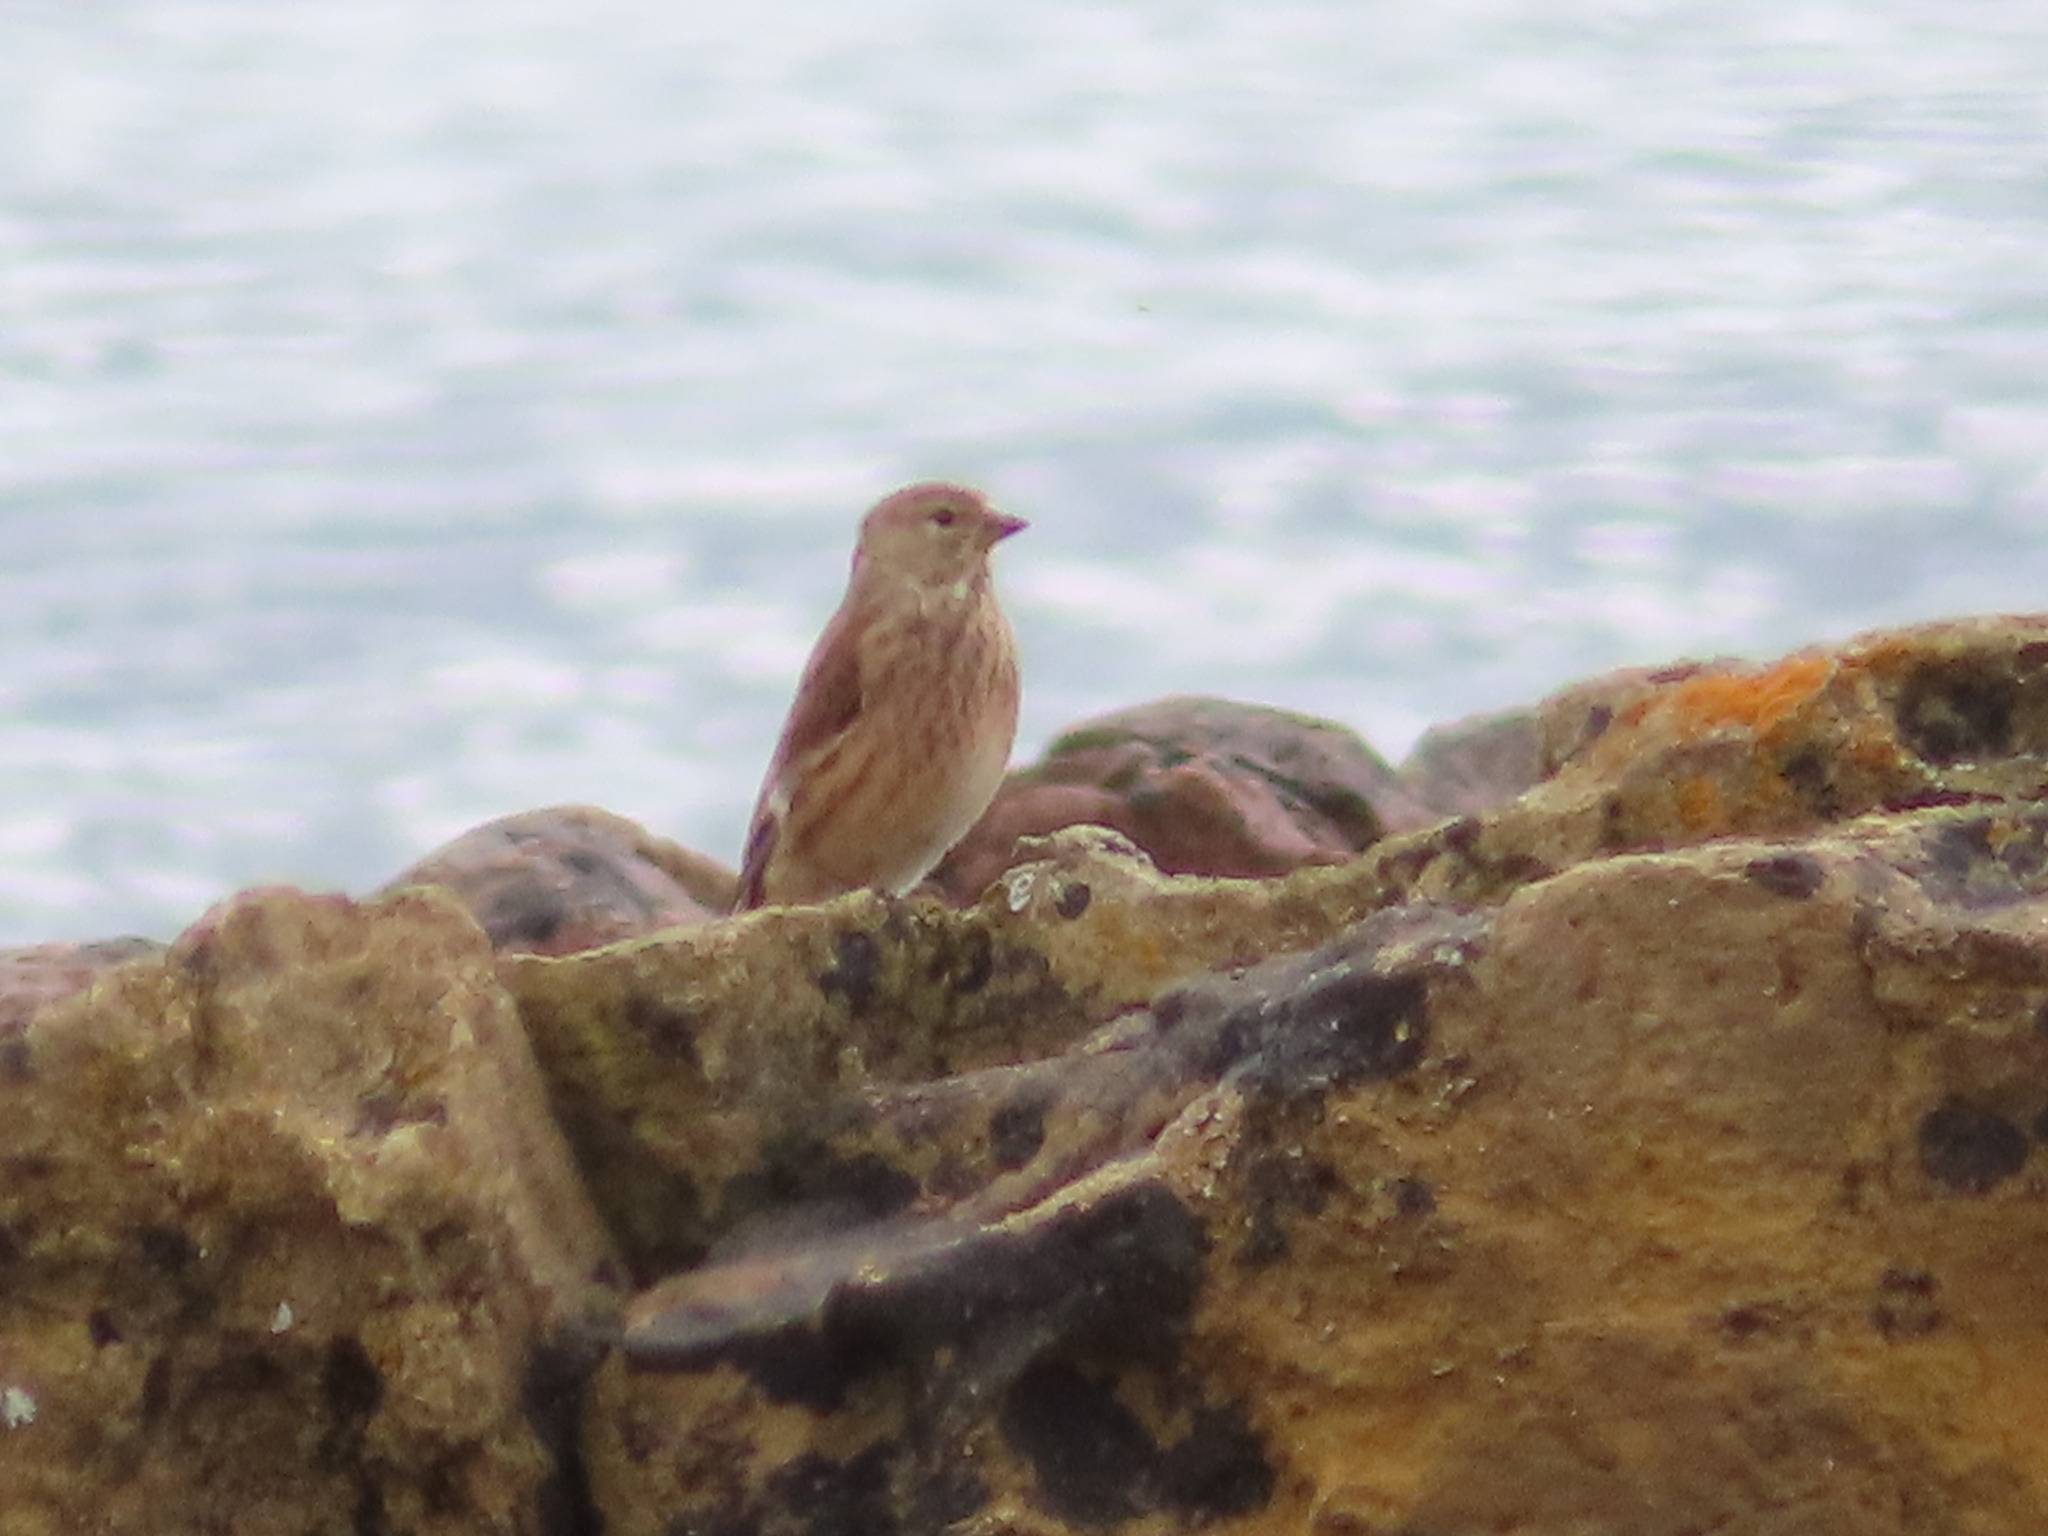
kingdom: Animalia
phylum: Chordata
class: Aves
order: Passeriformes
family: Fringillidae
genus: Linaria
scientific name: Linaria cannabina
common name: Common linnet
